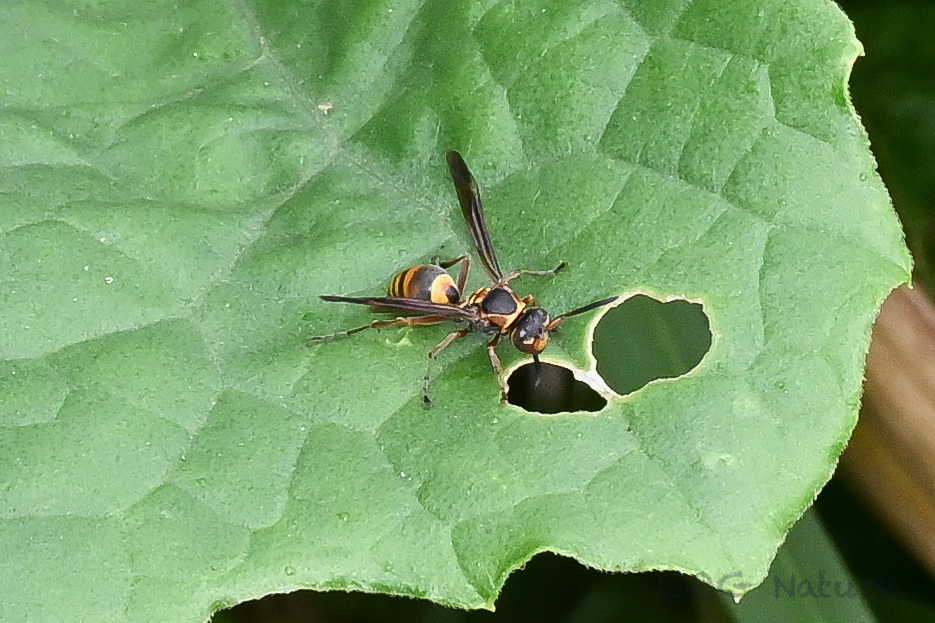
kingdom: Animalia
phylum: Arthropoda
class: Insecta
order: Hymenoptera
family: Eumenidae
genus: Polistes
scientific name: Polistes snelleni
